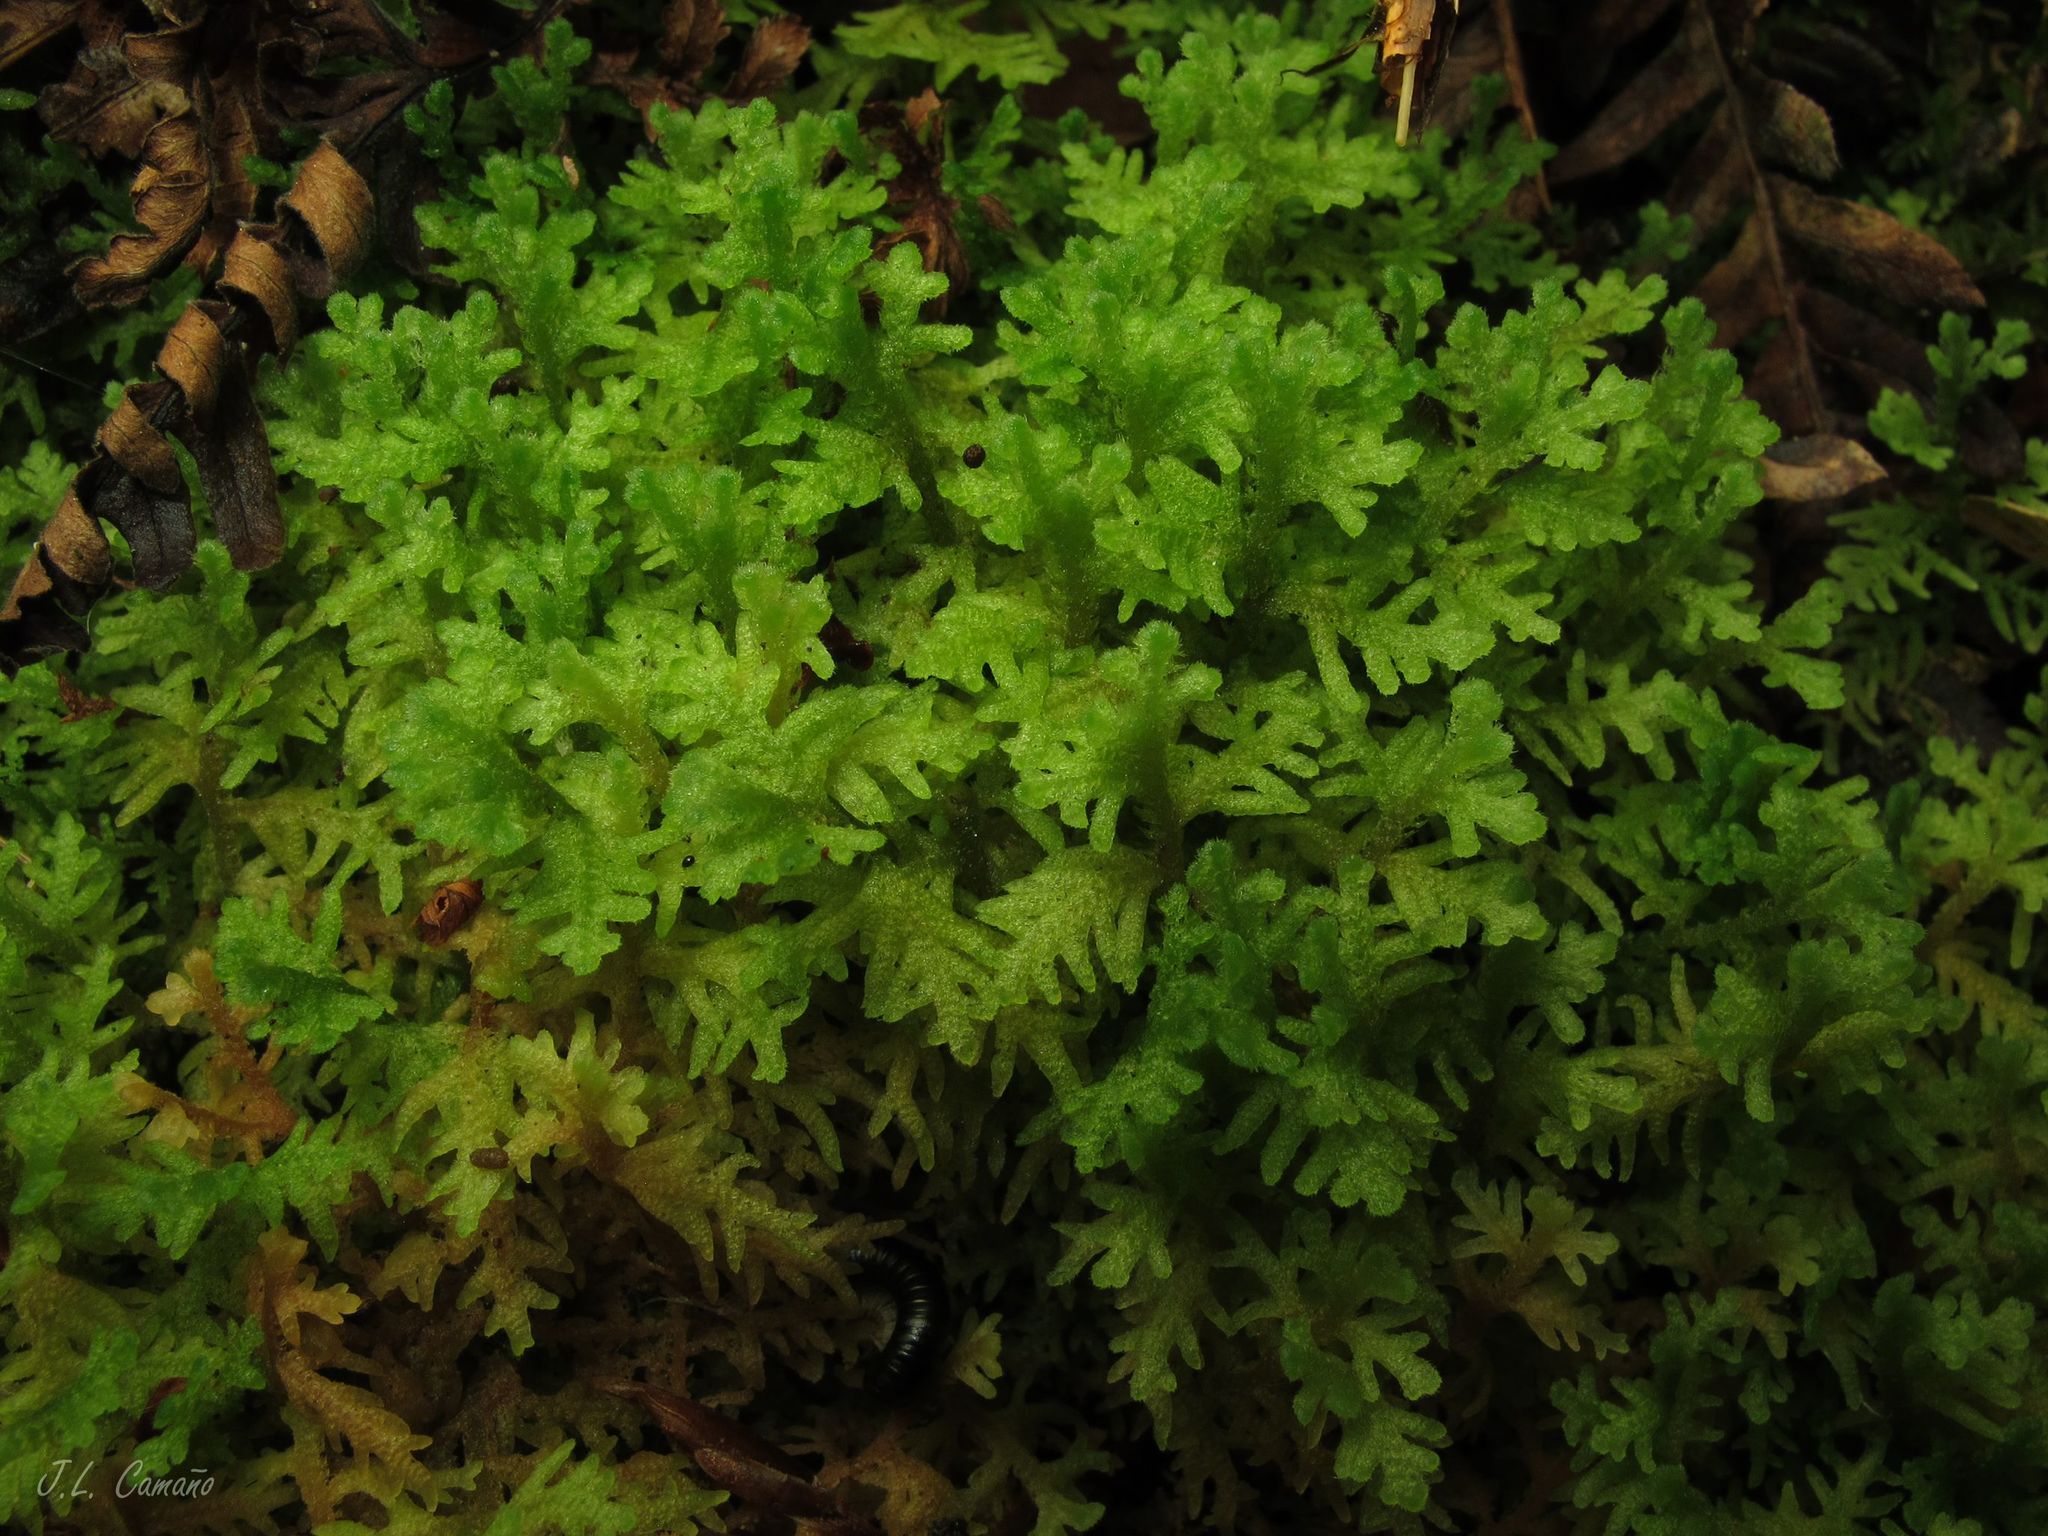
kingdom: Plantae
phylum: Marchantiophyta
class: Jungermanniopsida
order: Jungermanniales
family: Trichocoleaceae
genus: Trichocolea
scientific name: Trichocolea tomentella
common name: Woolly liverwort
